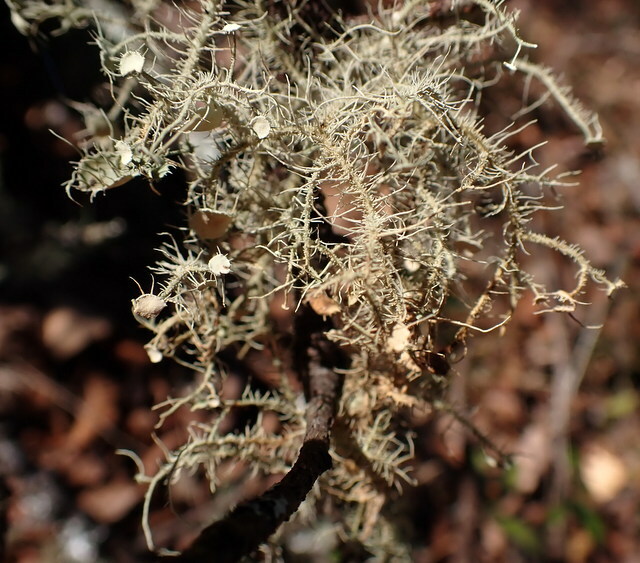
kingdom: Fungi
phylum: Ascomycota
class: Lecanoromycetes
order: Lecanorales
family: Parmeliaceae
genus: Usnea
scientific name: Usnea strigosa
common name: Bushy beard lichen
